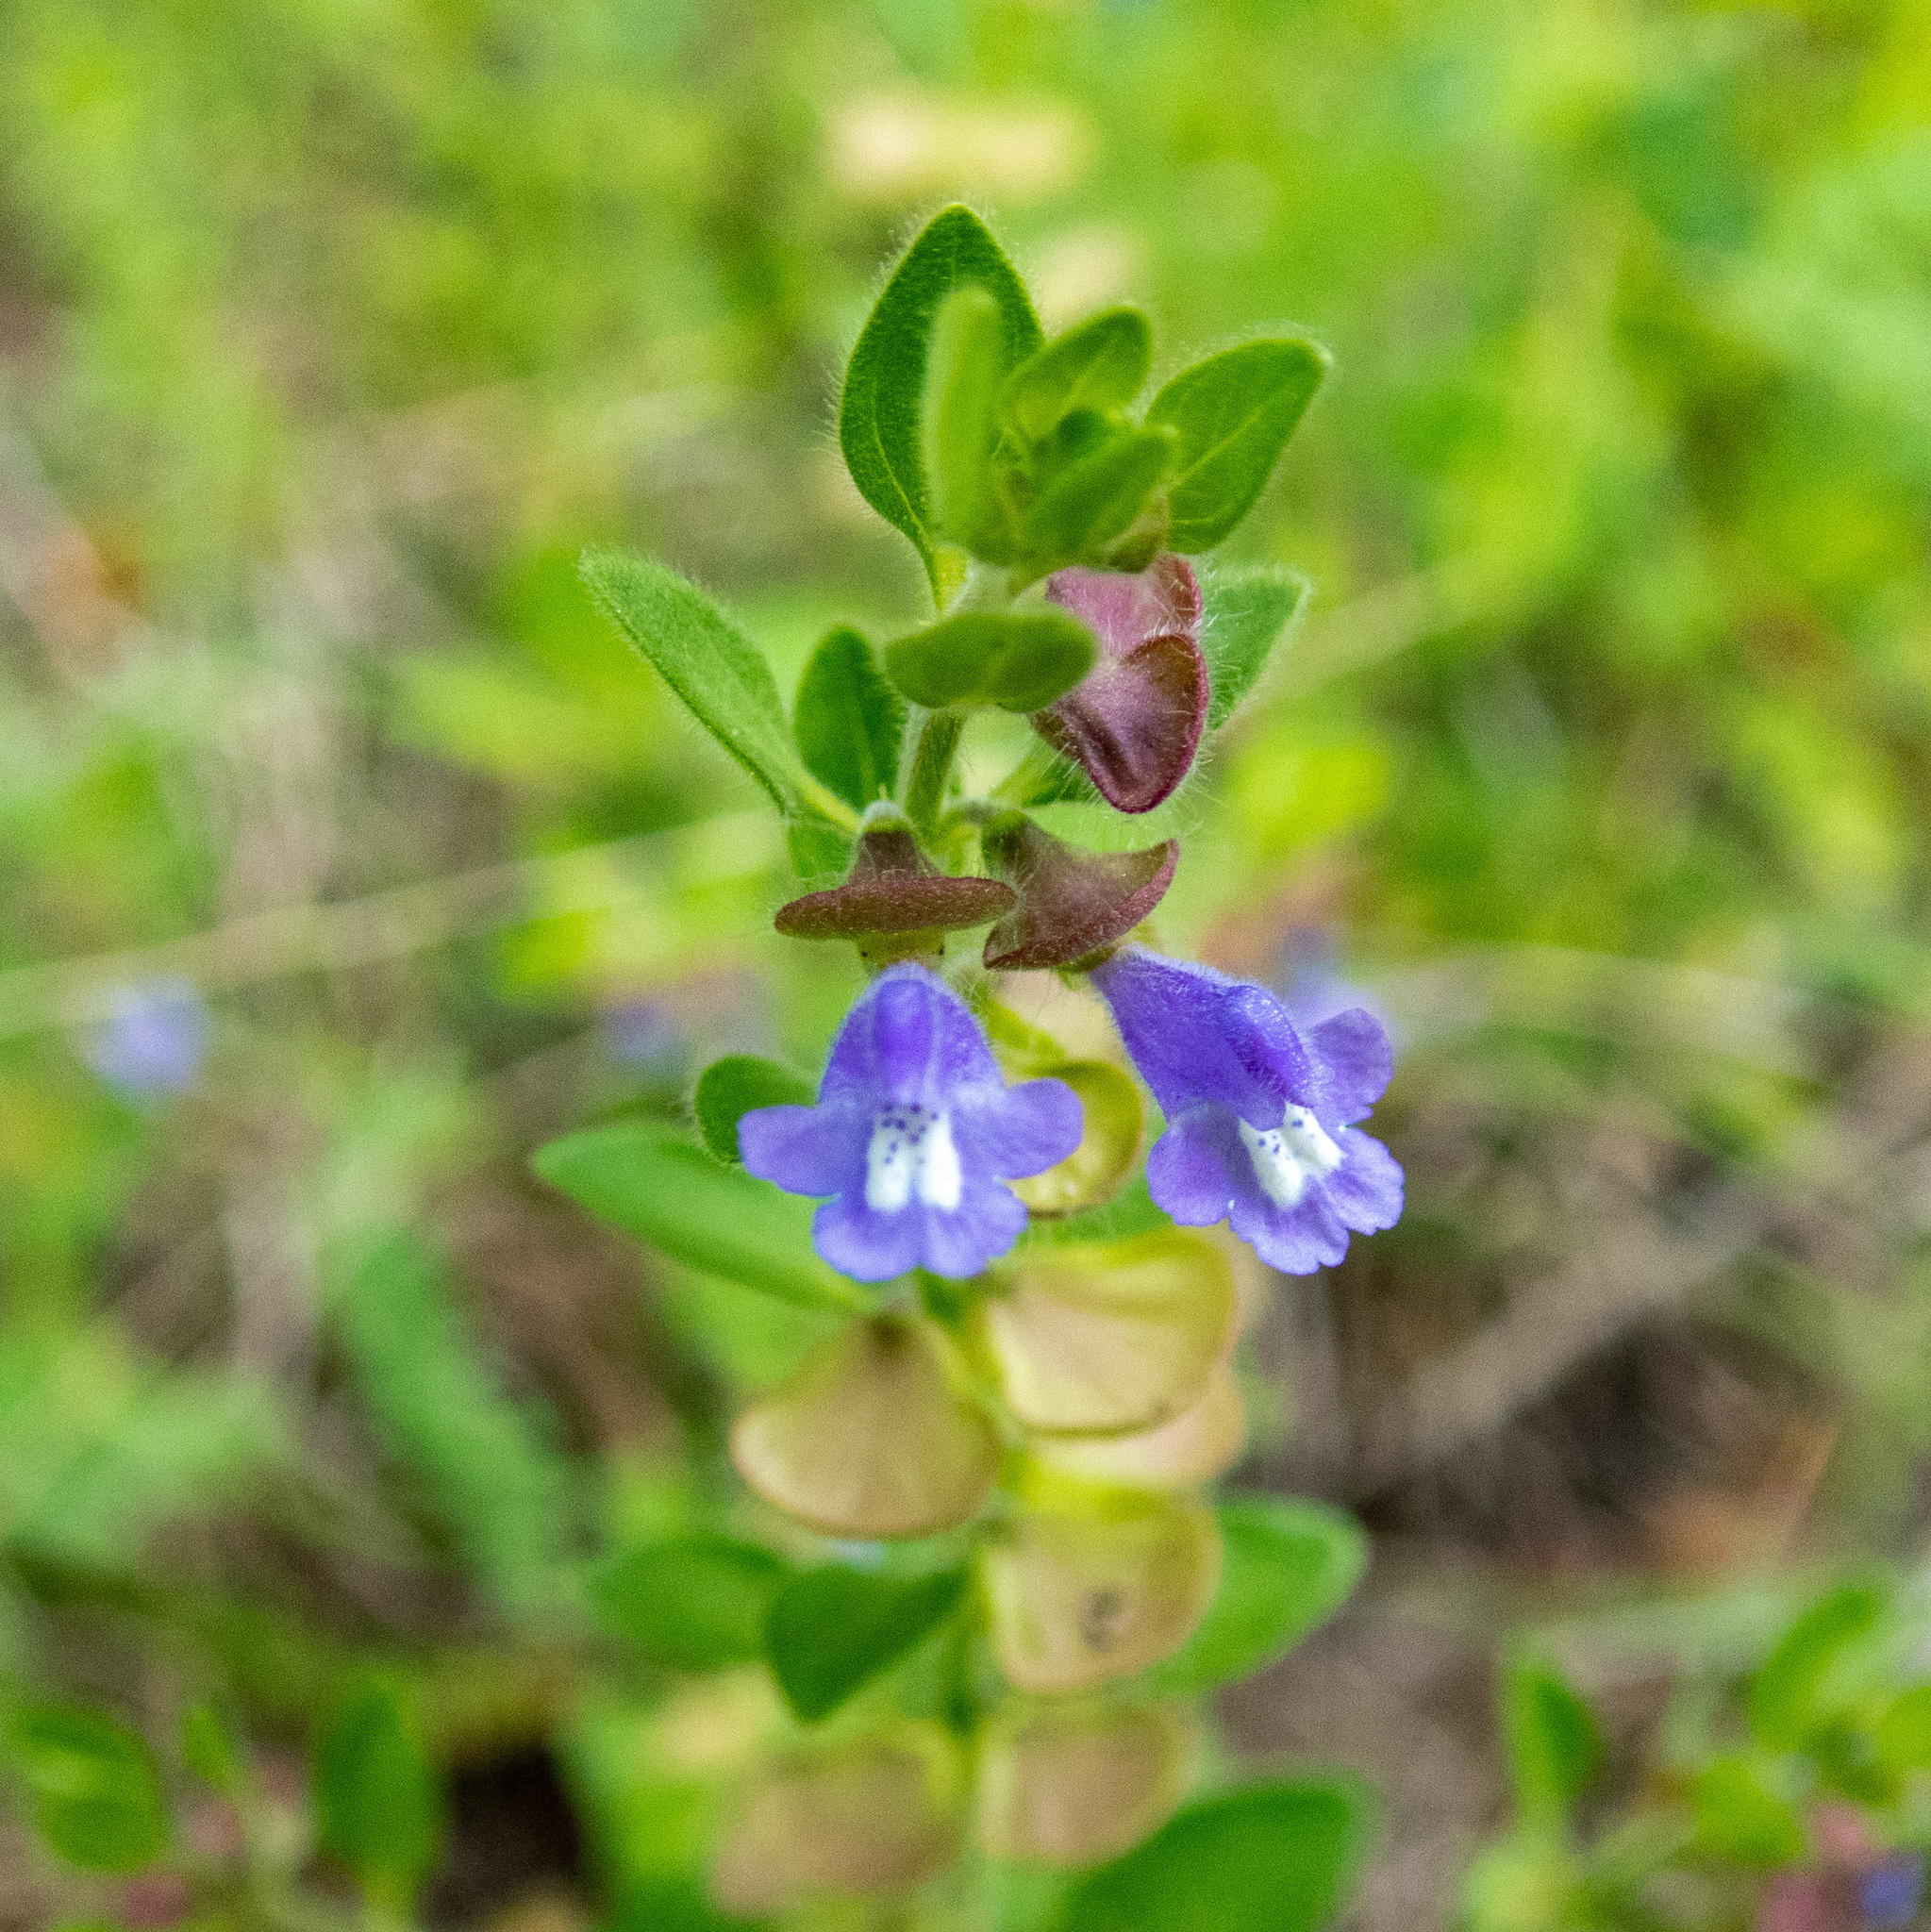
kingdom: Plantae
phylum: Tracheophyta
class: Magnoliopsida
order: Lamiales
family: Lamiaceae
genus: Scutellaria
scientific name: Scutellaria drummondii
